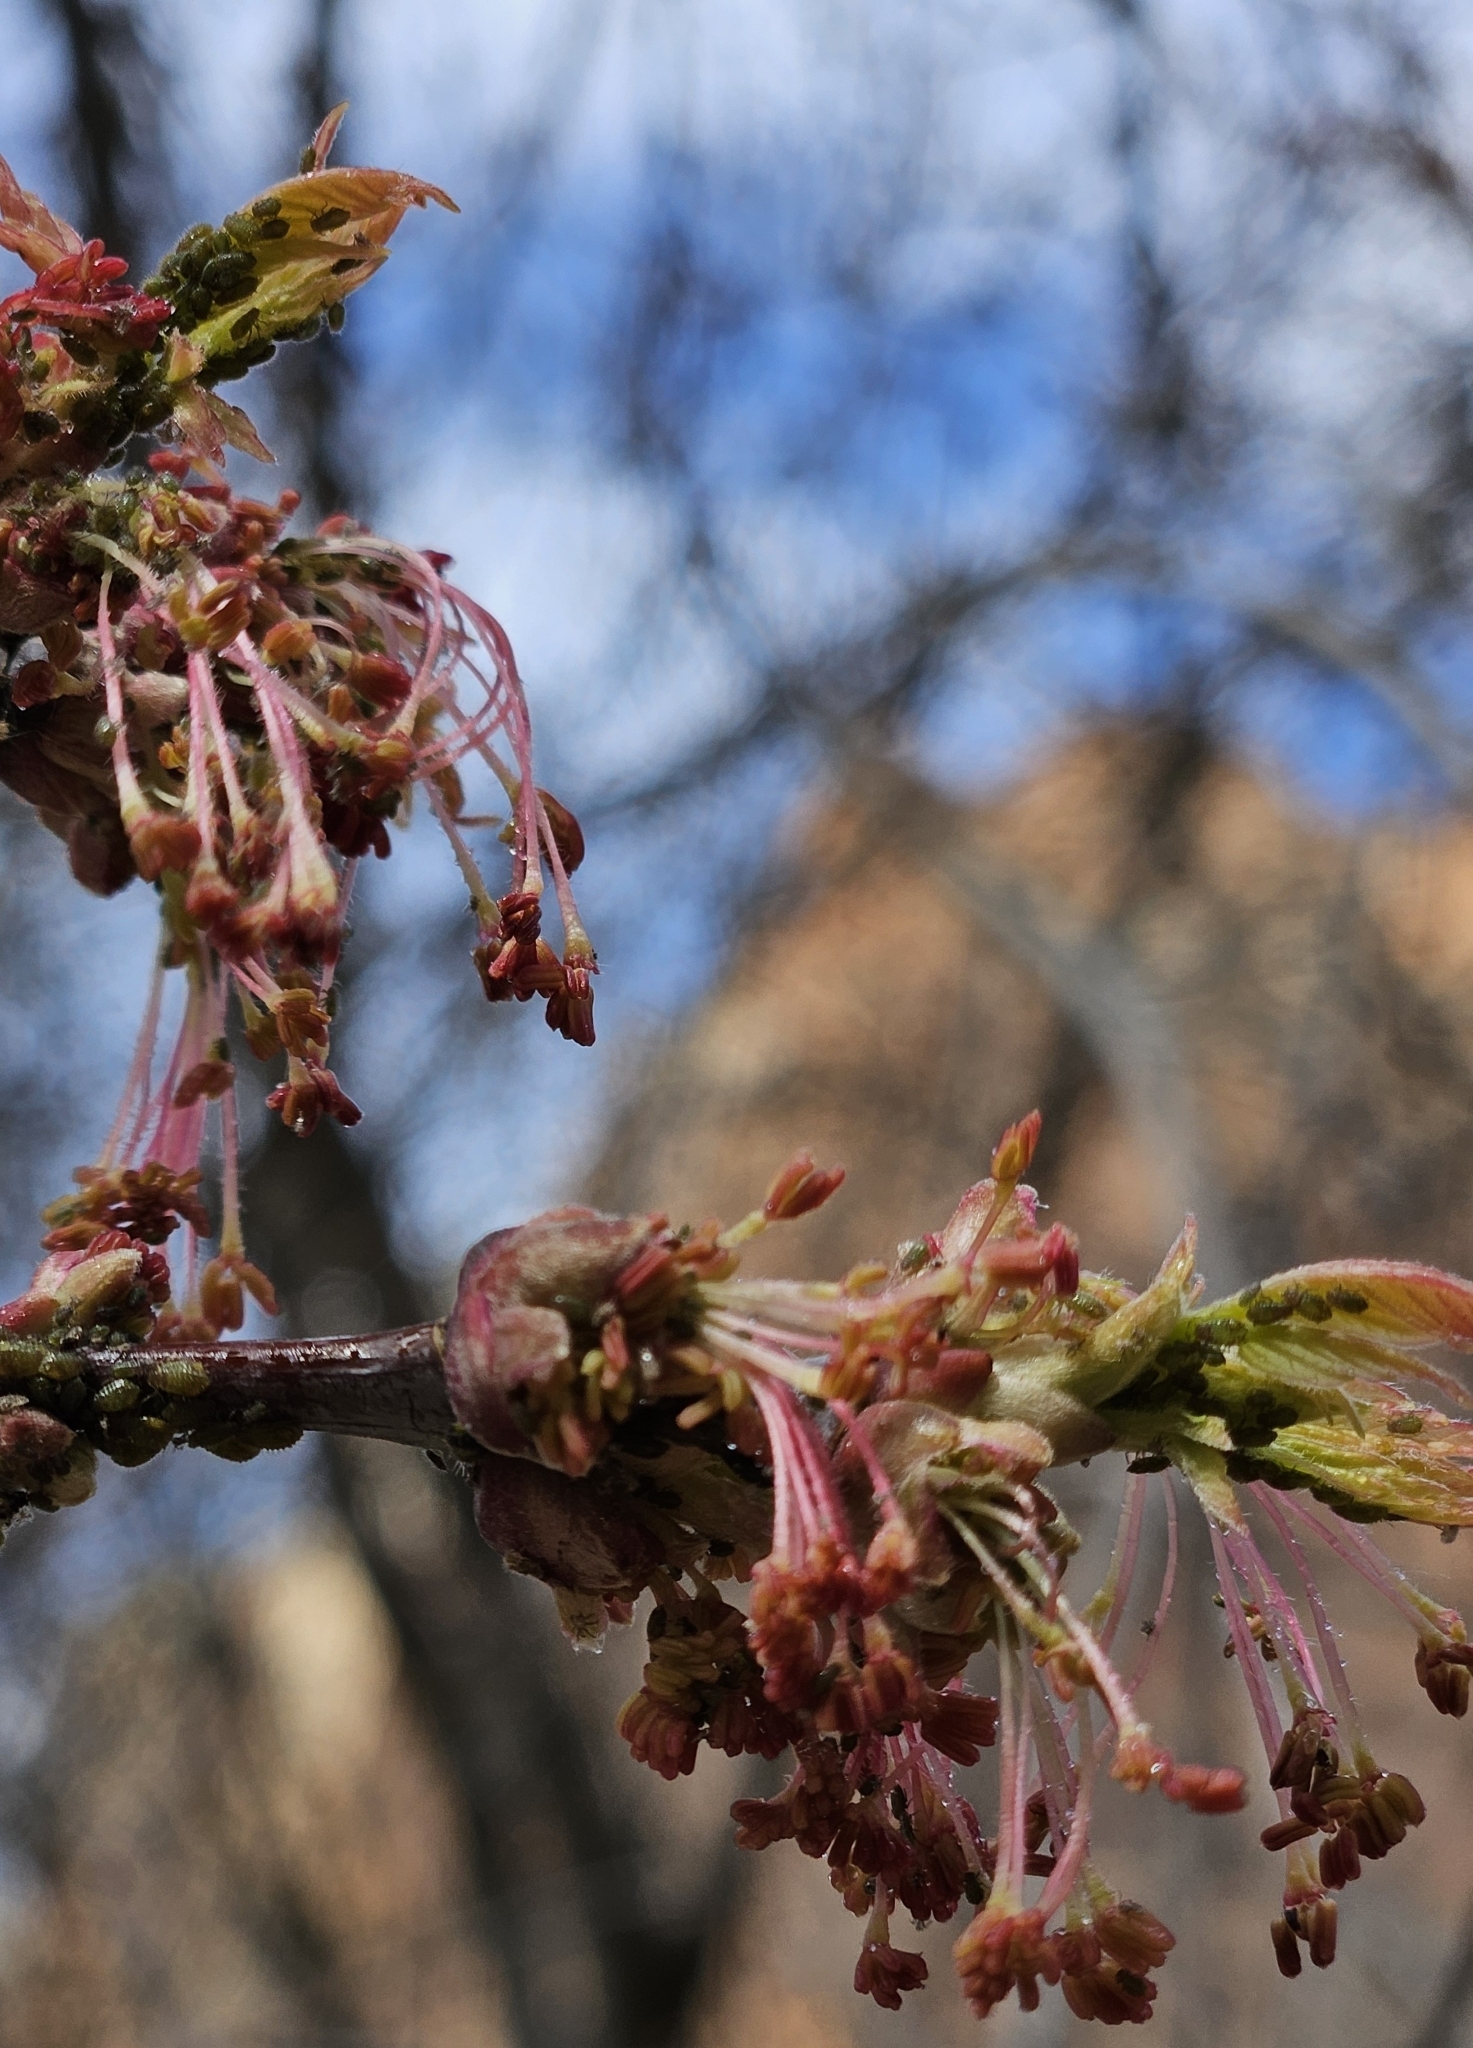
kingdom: Plantae
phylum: Tracheophyta
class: Magnoliopsida
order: Sapindales
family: Sapindaceae
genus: Acer
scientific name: Acer negundo
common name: Ashleaf maple
